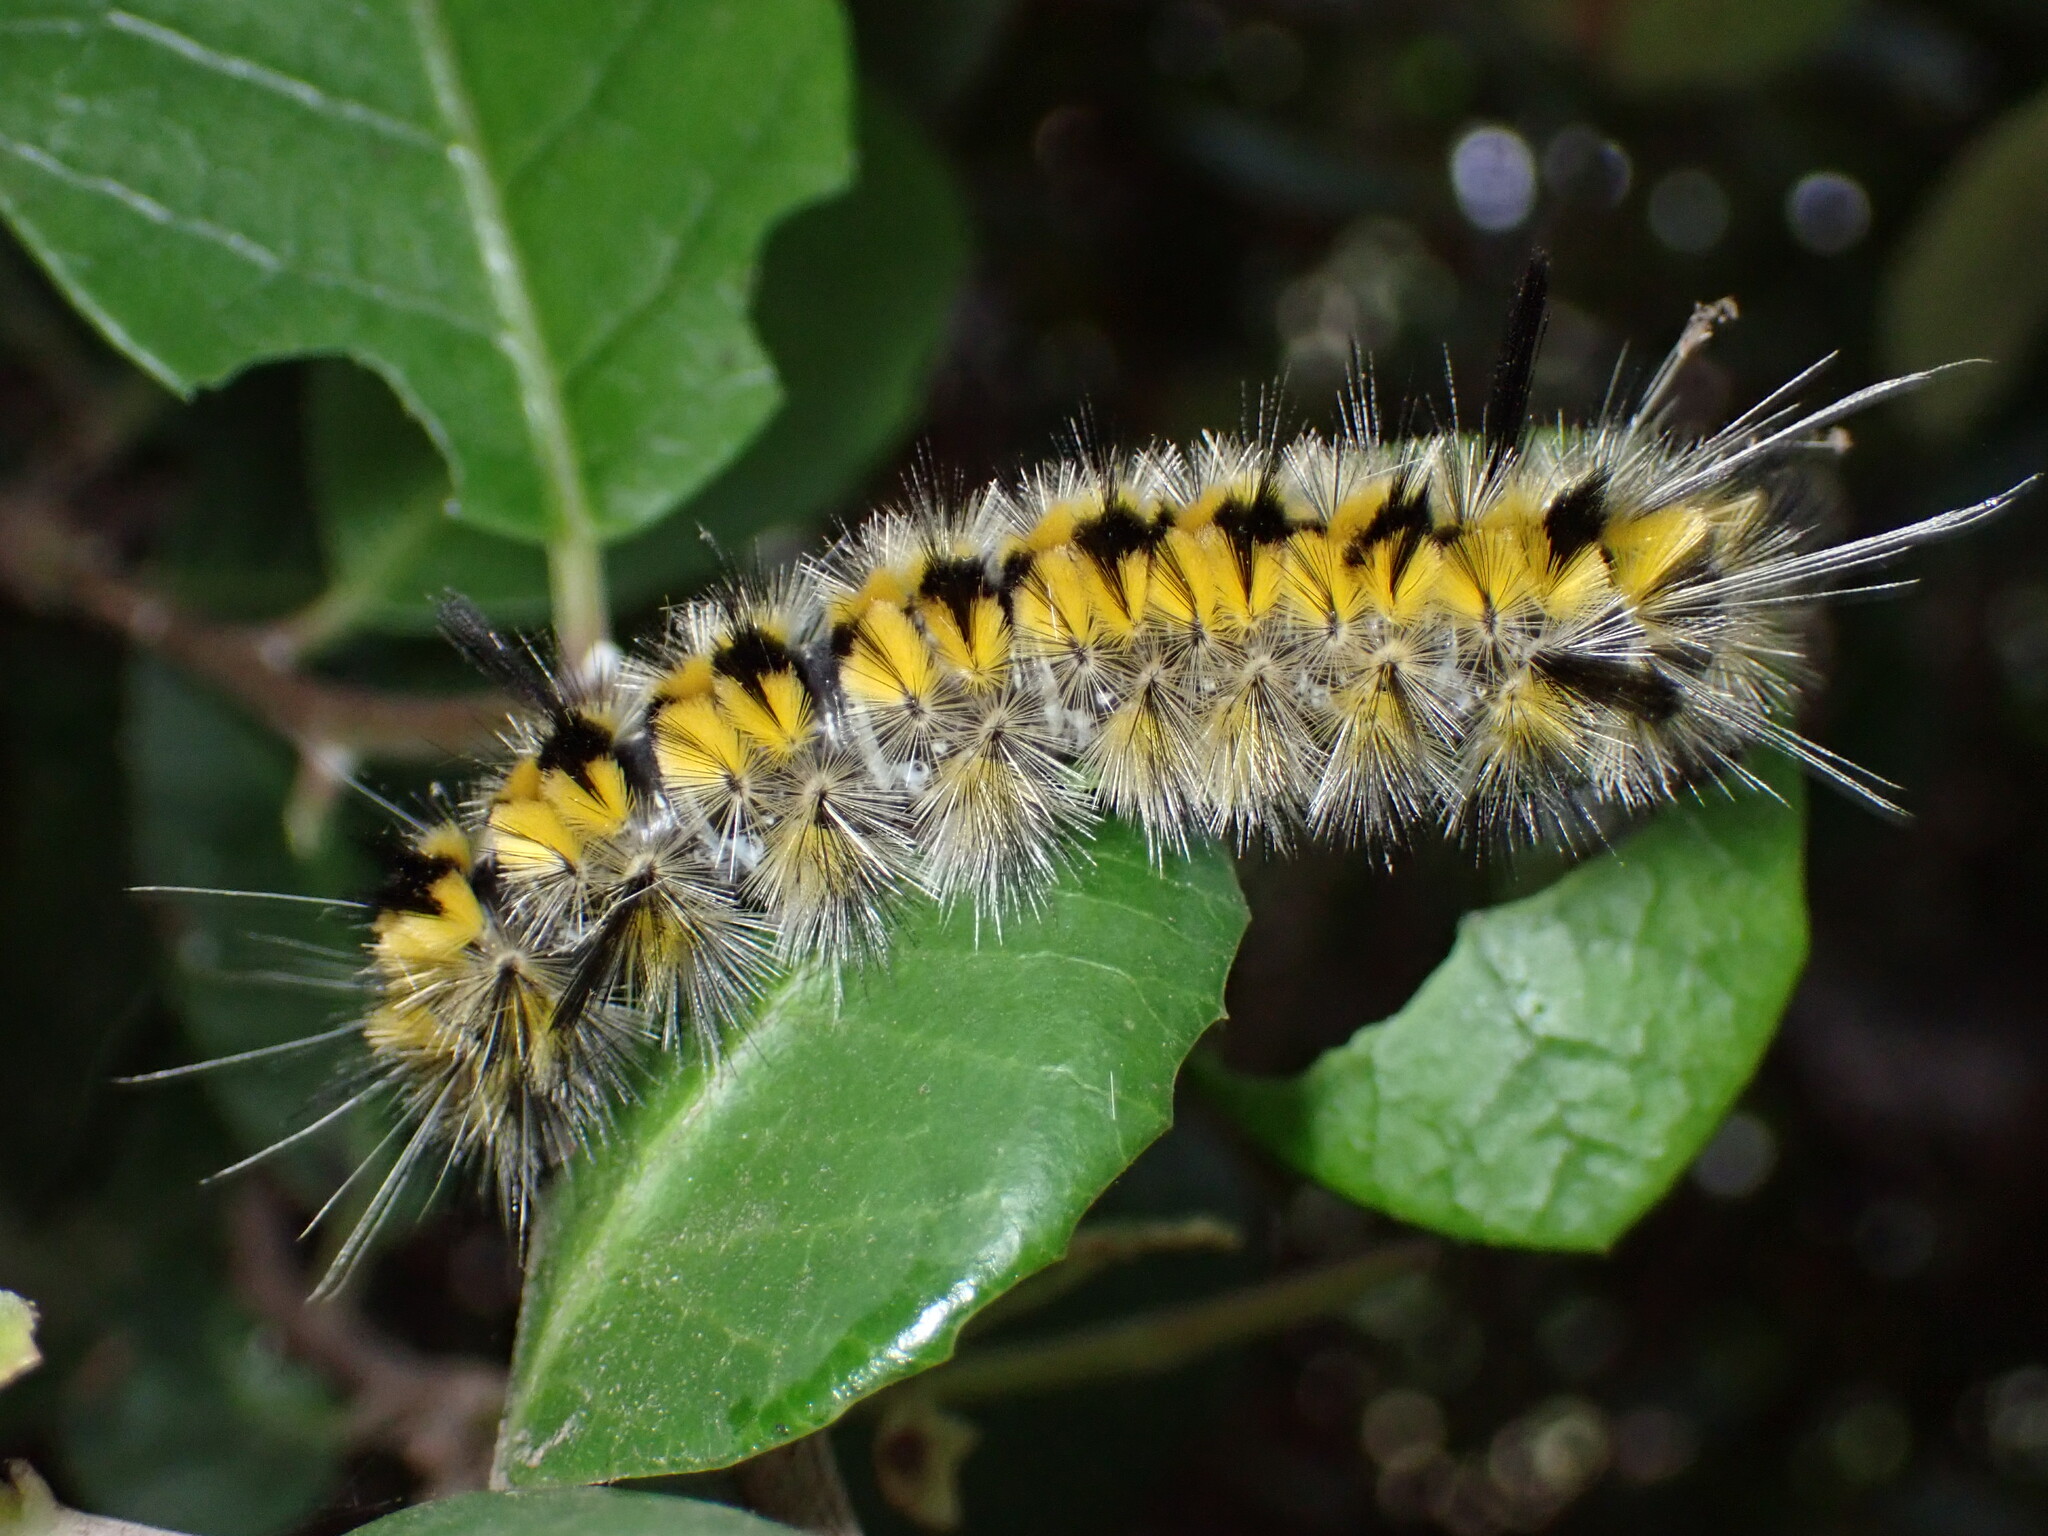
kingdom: Animalia
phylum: Arthropoda
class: Insecta
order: Lepidoptera
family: Erebidae
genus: Lophocampa
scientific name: Lophocampa indistincta
